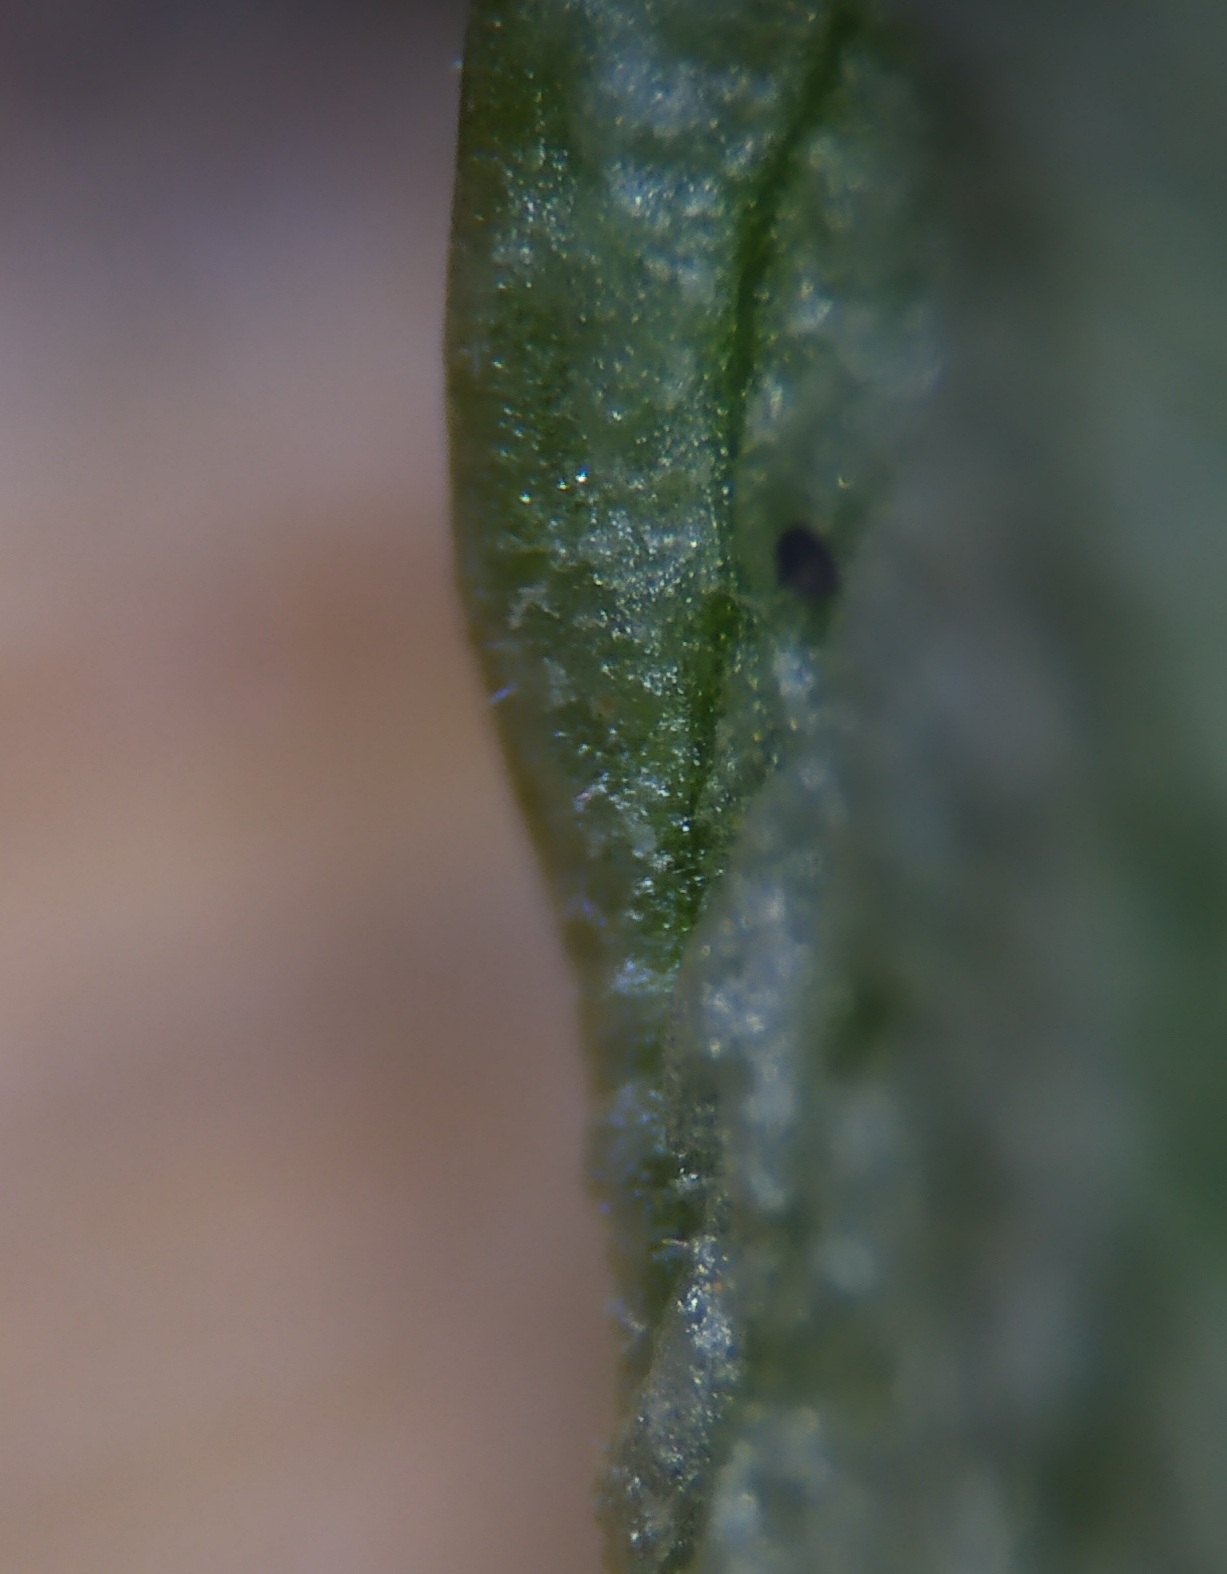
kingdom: Chromista
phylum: Oomycota
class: Peronosporea
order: Peronosporales
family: Peronosporaceae
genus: Peronospora
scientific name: Peronospora ficariae
